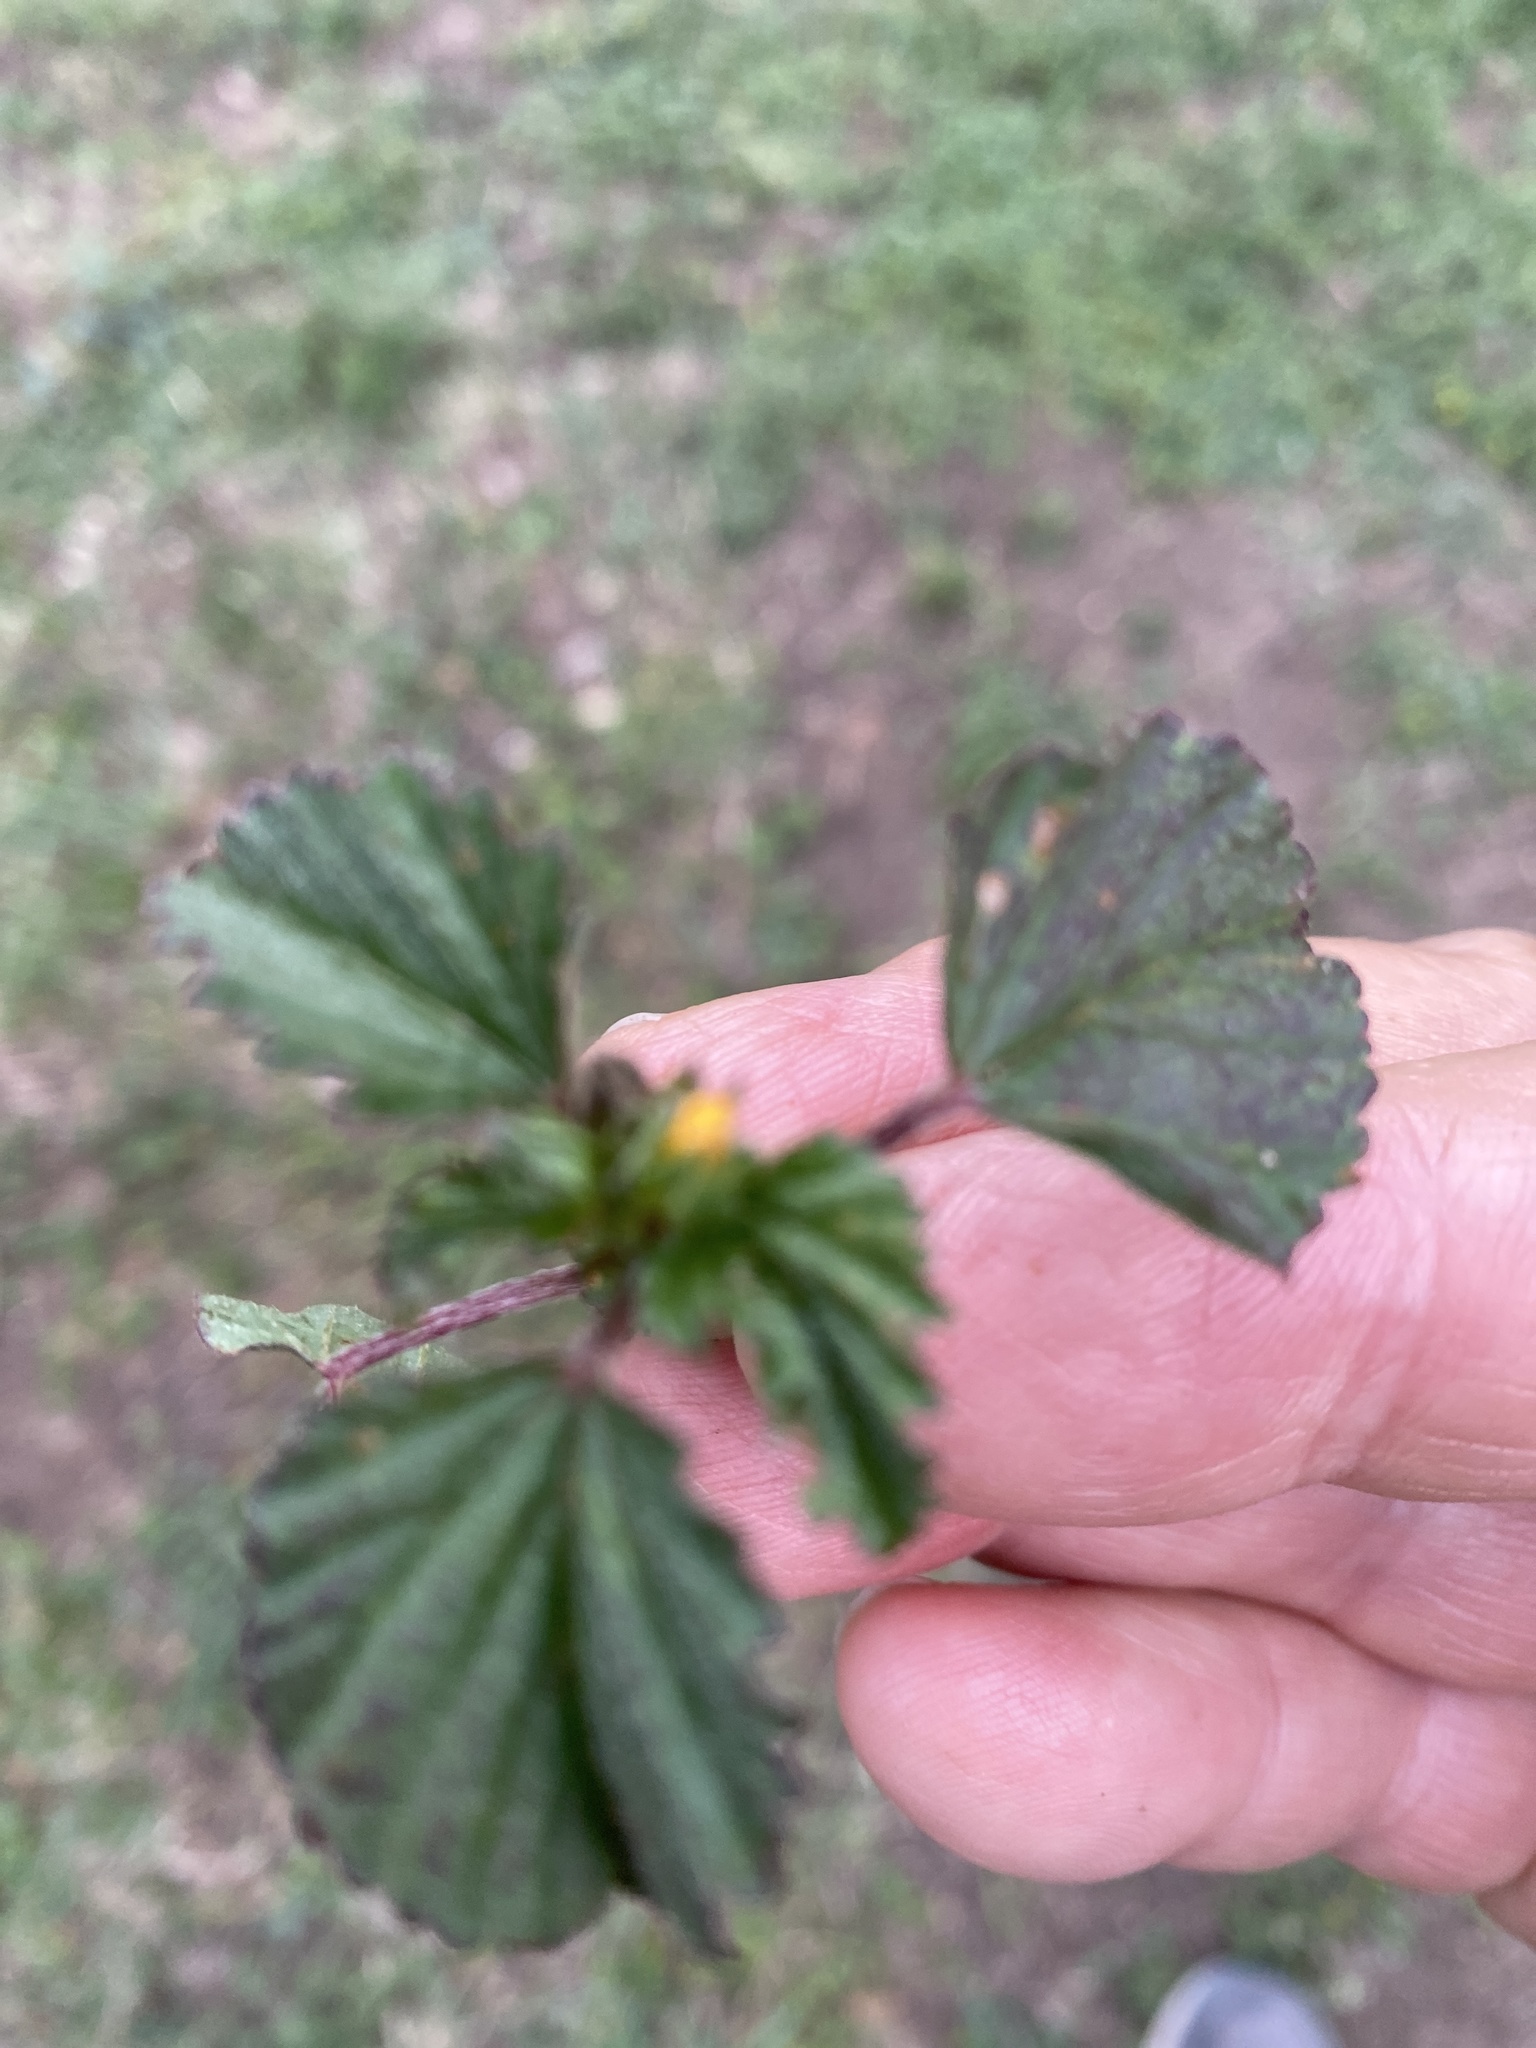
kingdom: Plantae
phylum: Tracheophyta
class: Magnoliopsida
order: Malvales
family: Malvaceae
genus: Malvastrum
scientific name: Malvastrum coromandelianum
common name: Threelobe false mallow
